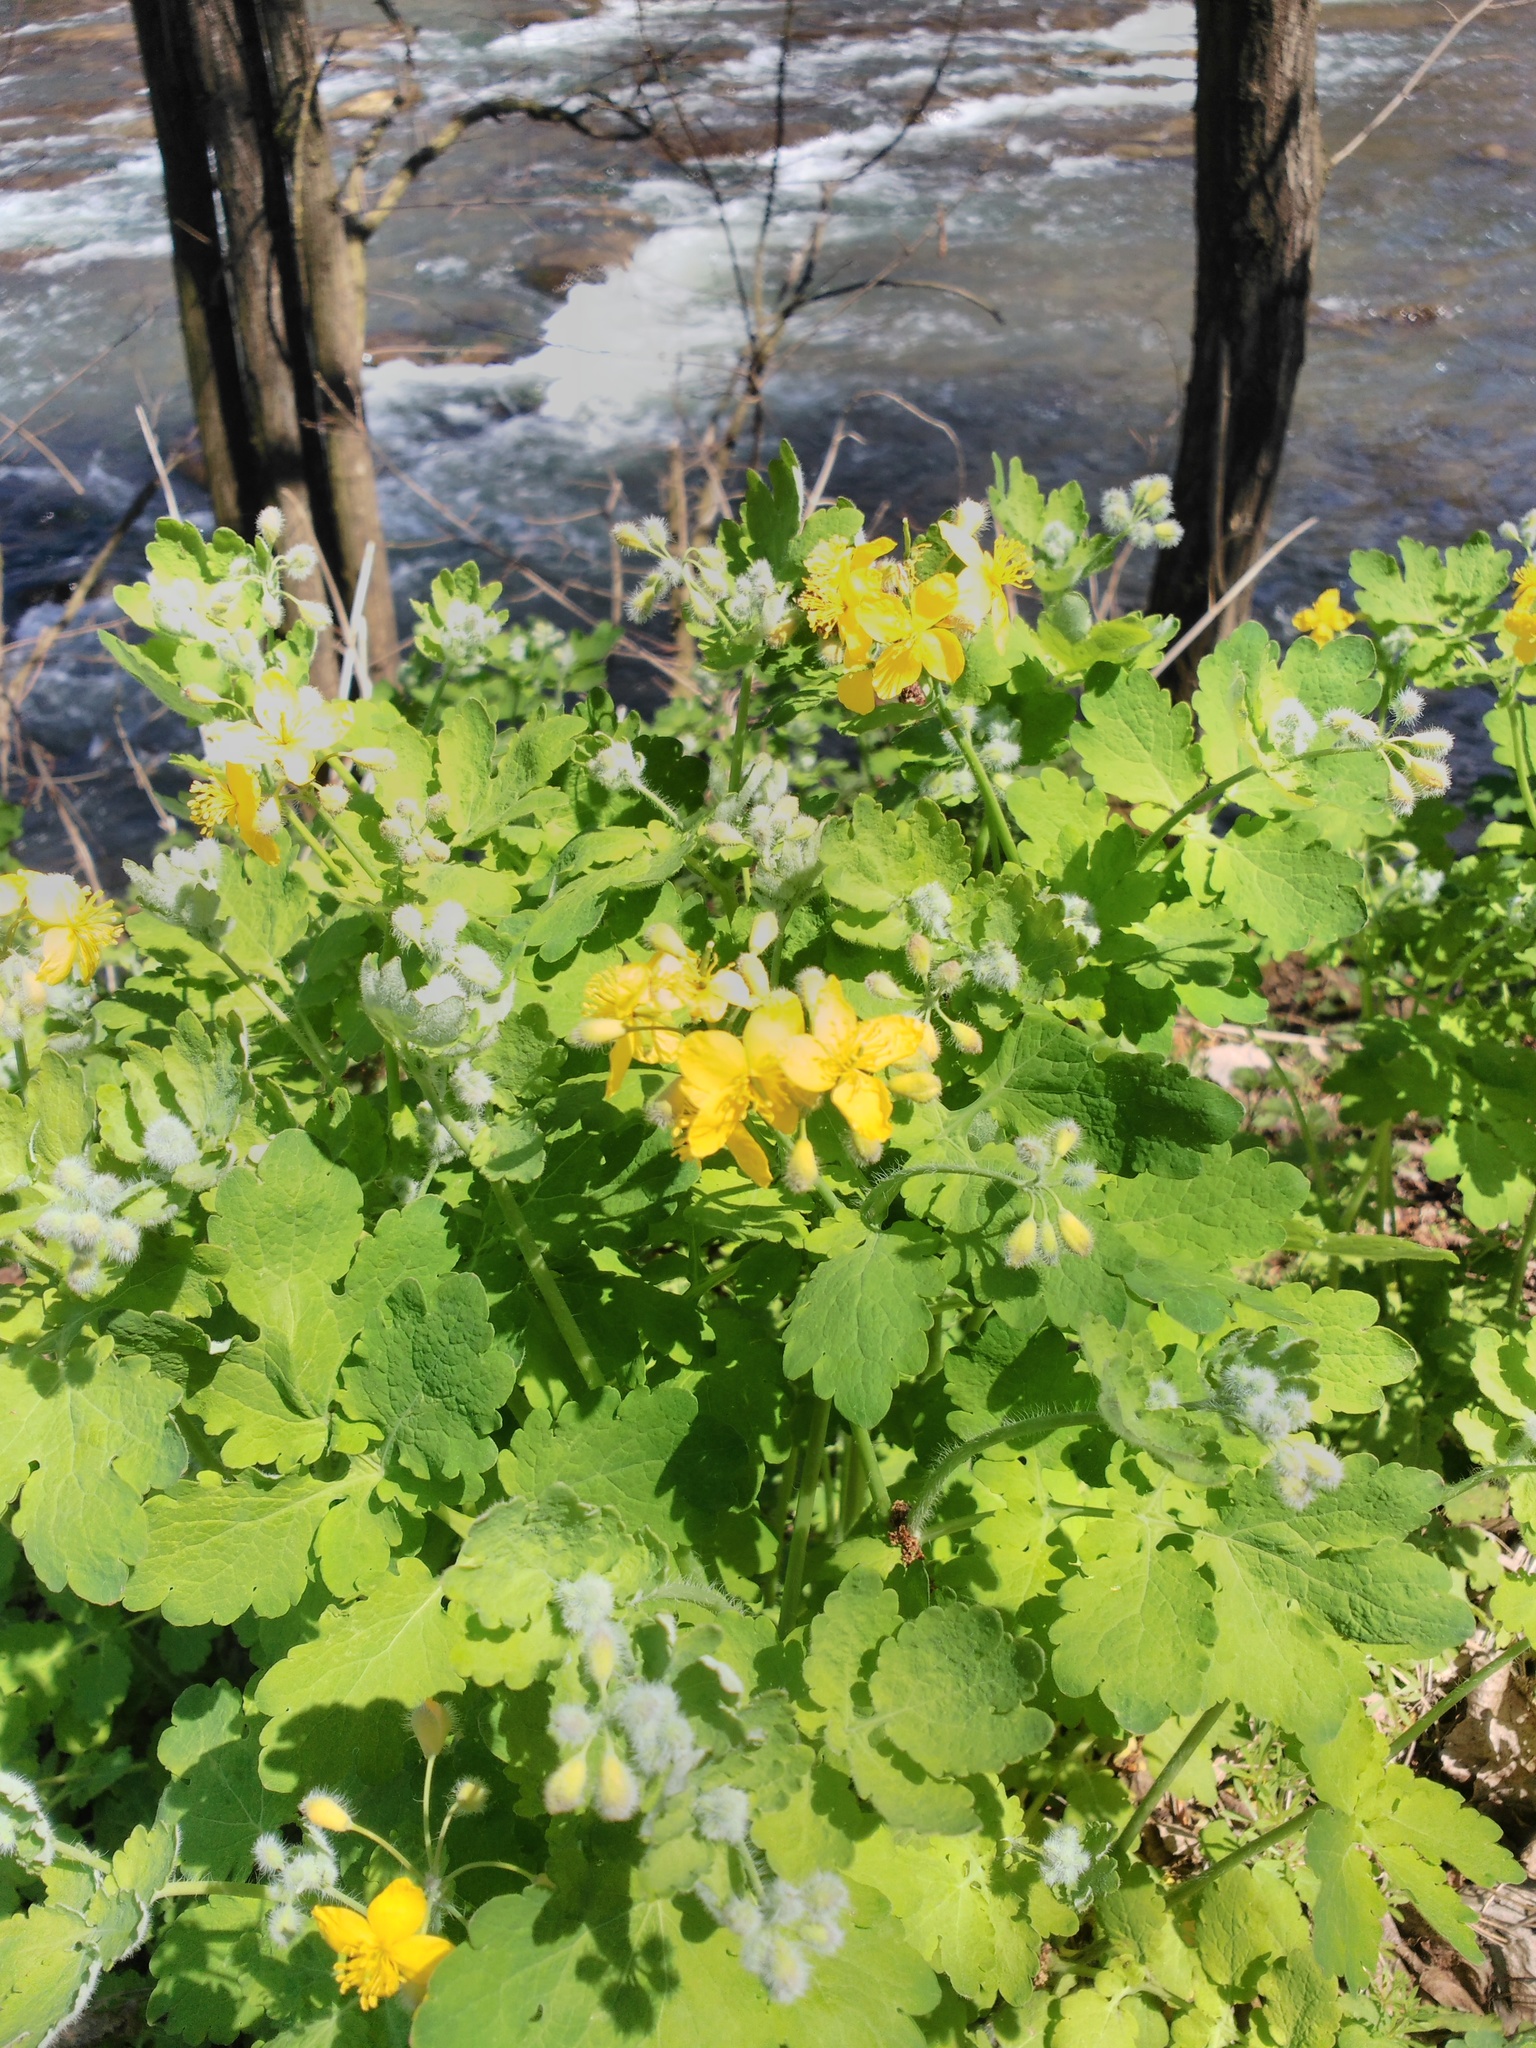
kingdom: Plantae
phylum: Tracheophyta
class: Magnoliopsida
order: Ranunculales
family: Papaveraceae
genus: Chelidonium
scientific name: Chelidonium majus
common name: Greater celandine
